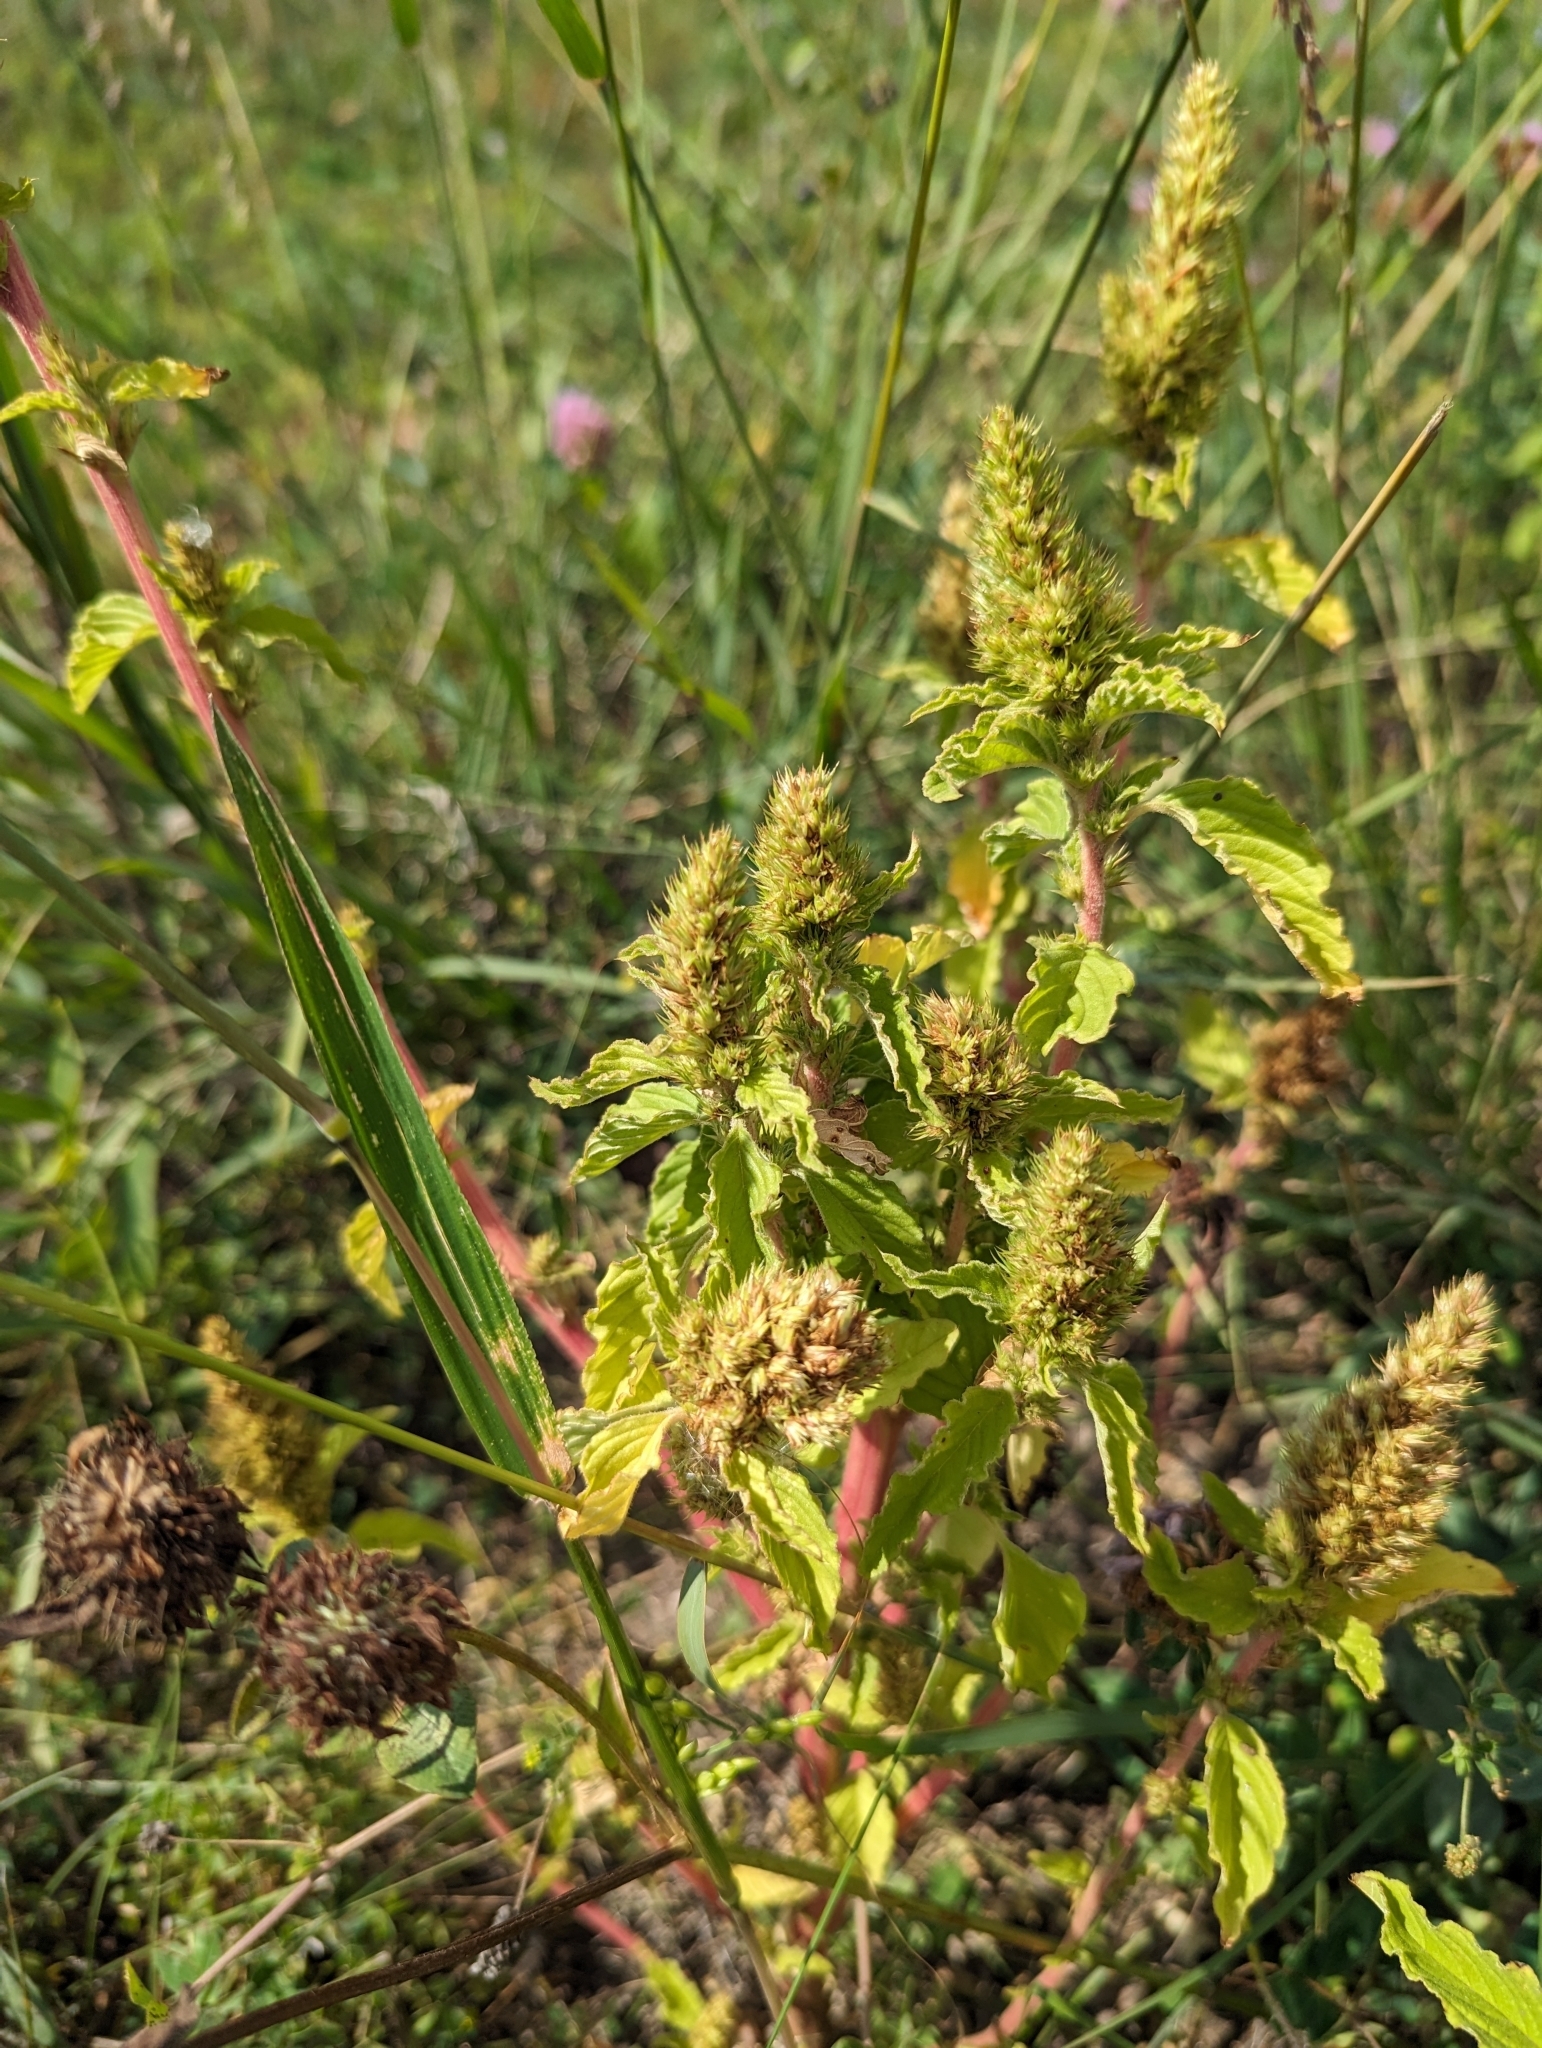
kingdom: Plantae
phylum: Tracheophyta
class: Magnoliopsida
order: Caryophyllales
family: Amaranthaceae
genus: Amaranthus
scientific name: Amaranthus retroflexus
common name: Redroot amaranth
